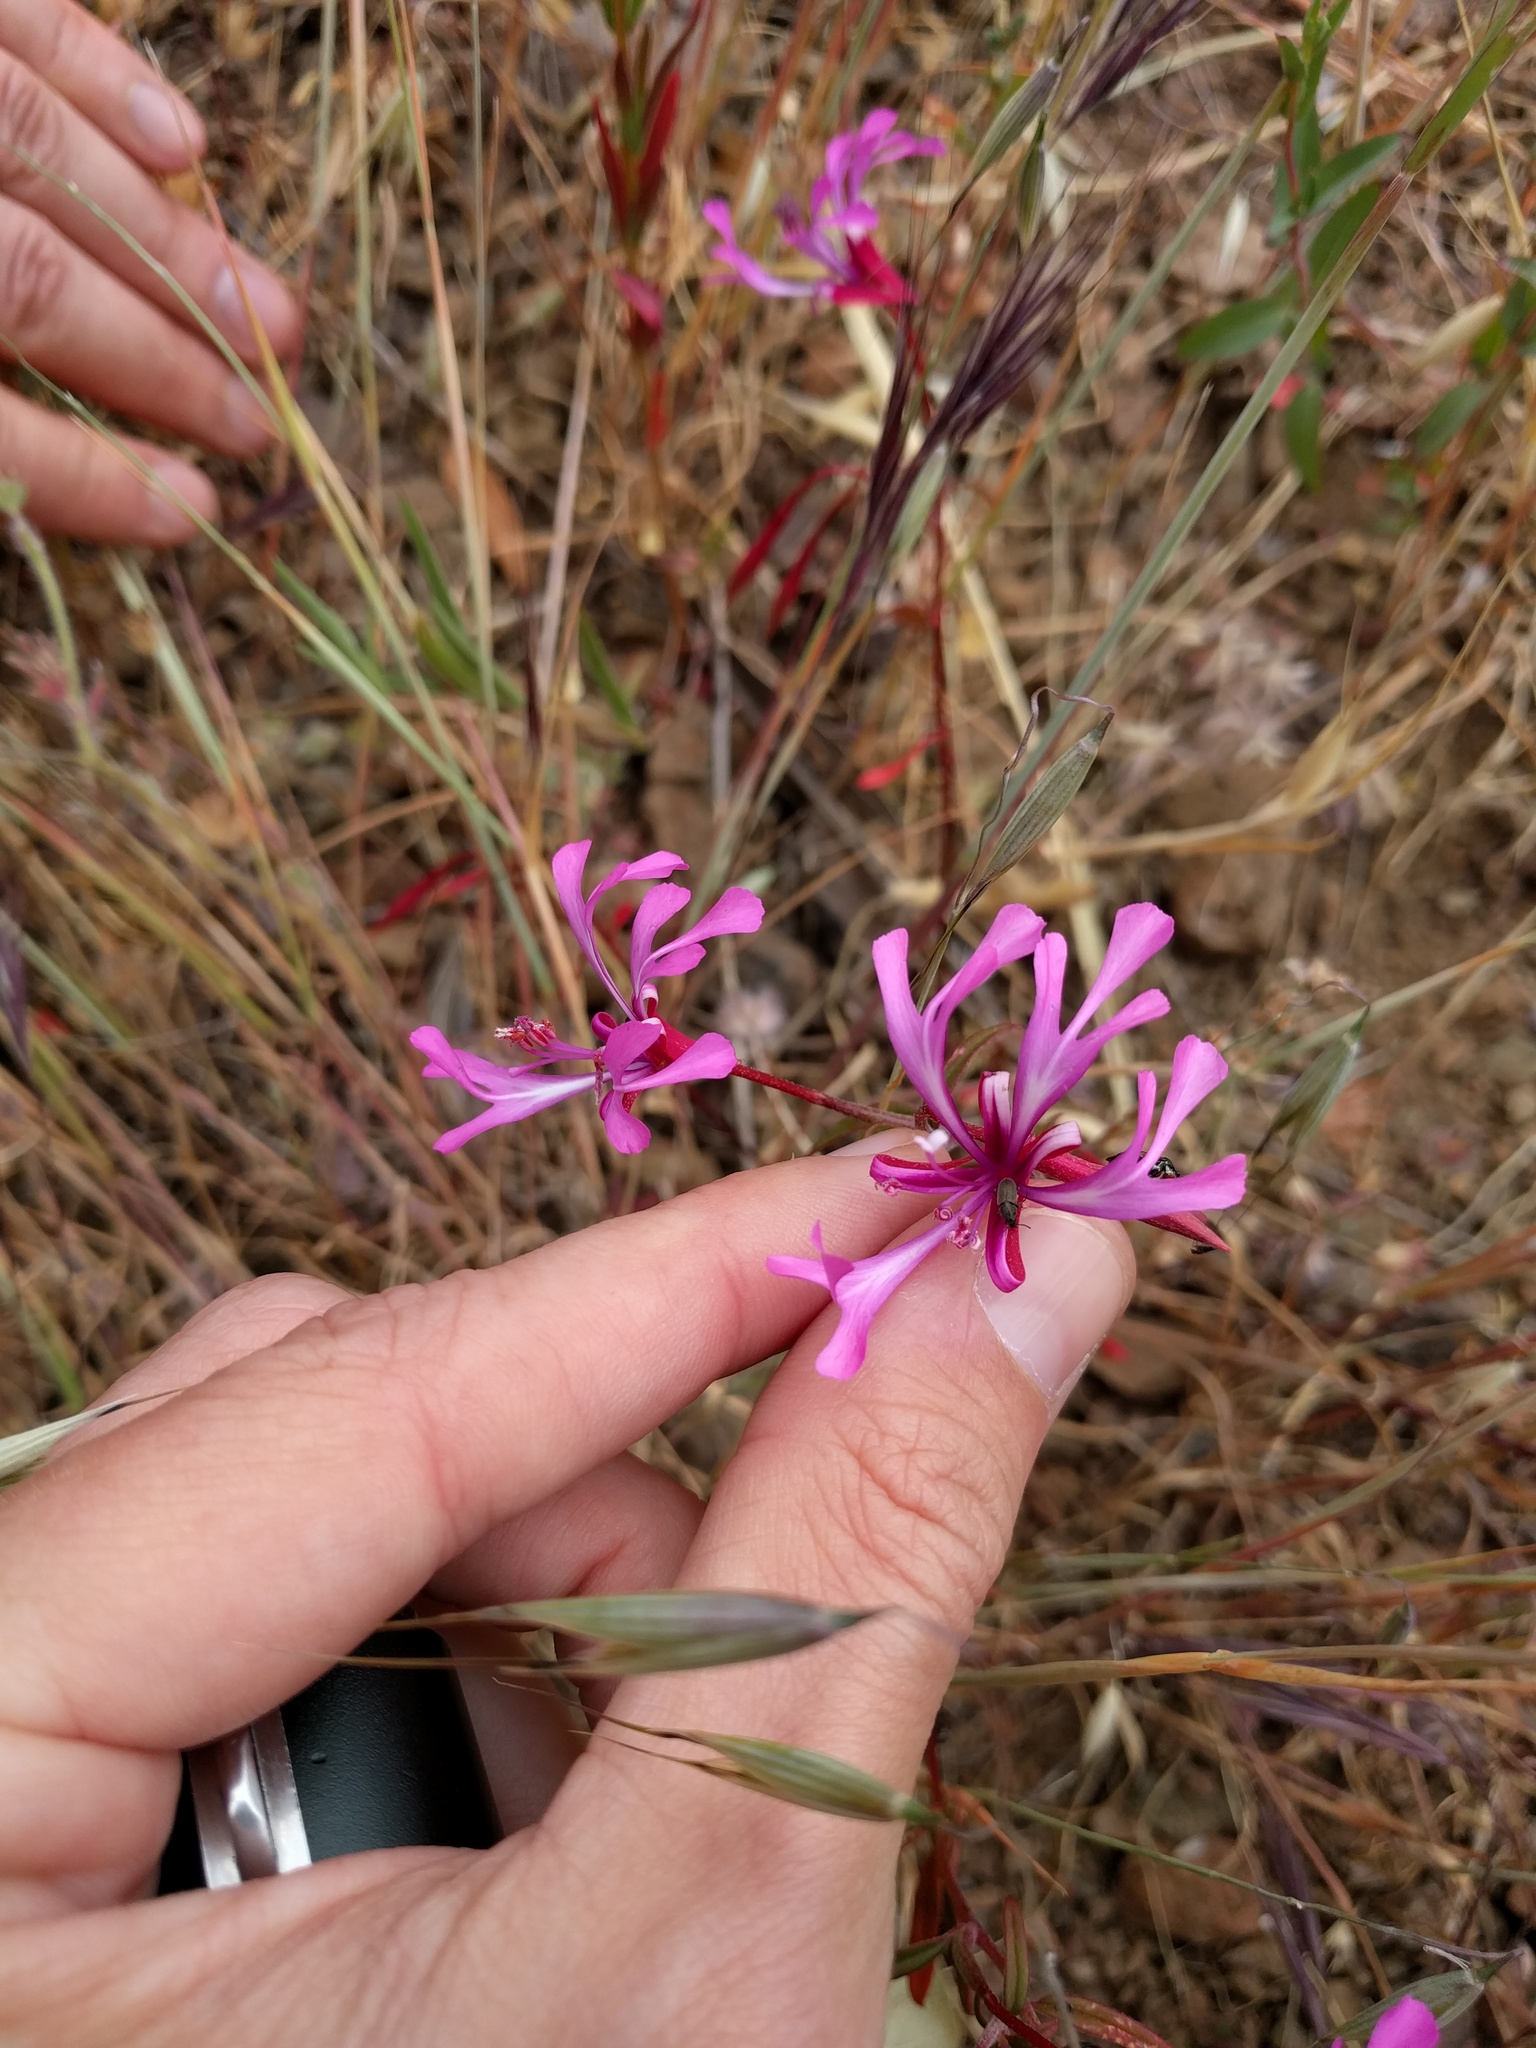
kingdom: Plantae
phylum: Tracheophyta
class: Magnoliopsida
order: Myrtales
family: Onagraceae
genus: Clarkia
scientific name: Clarkia concinna
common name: Red-ribbons
